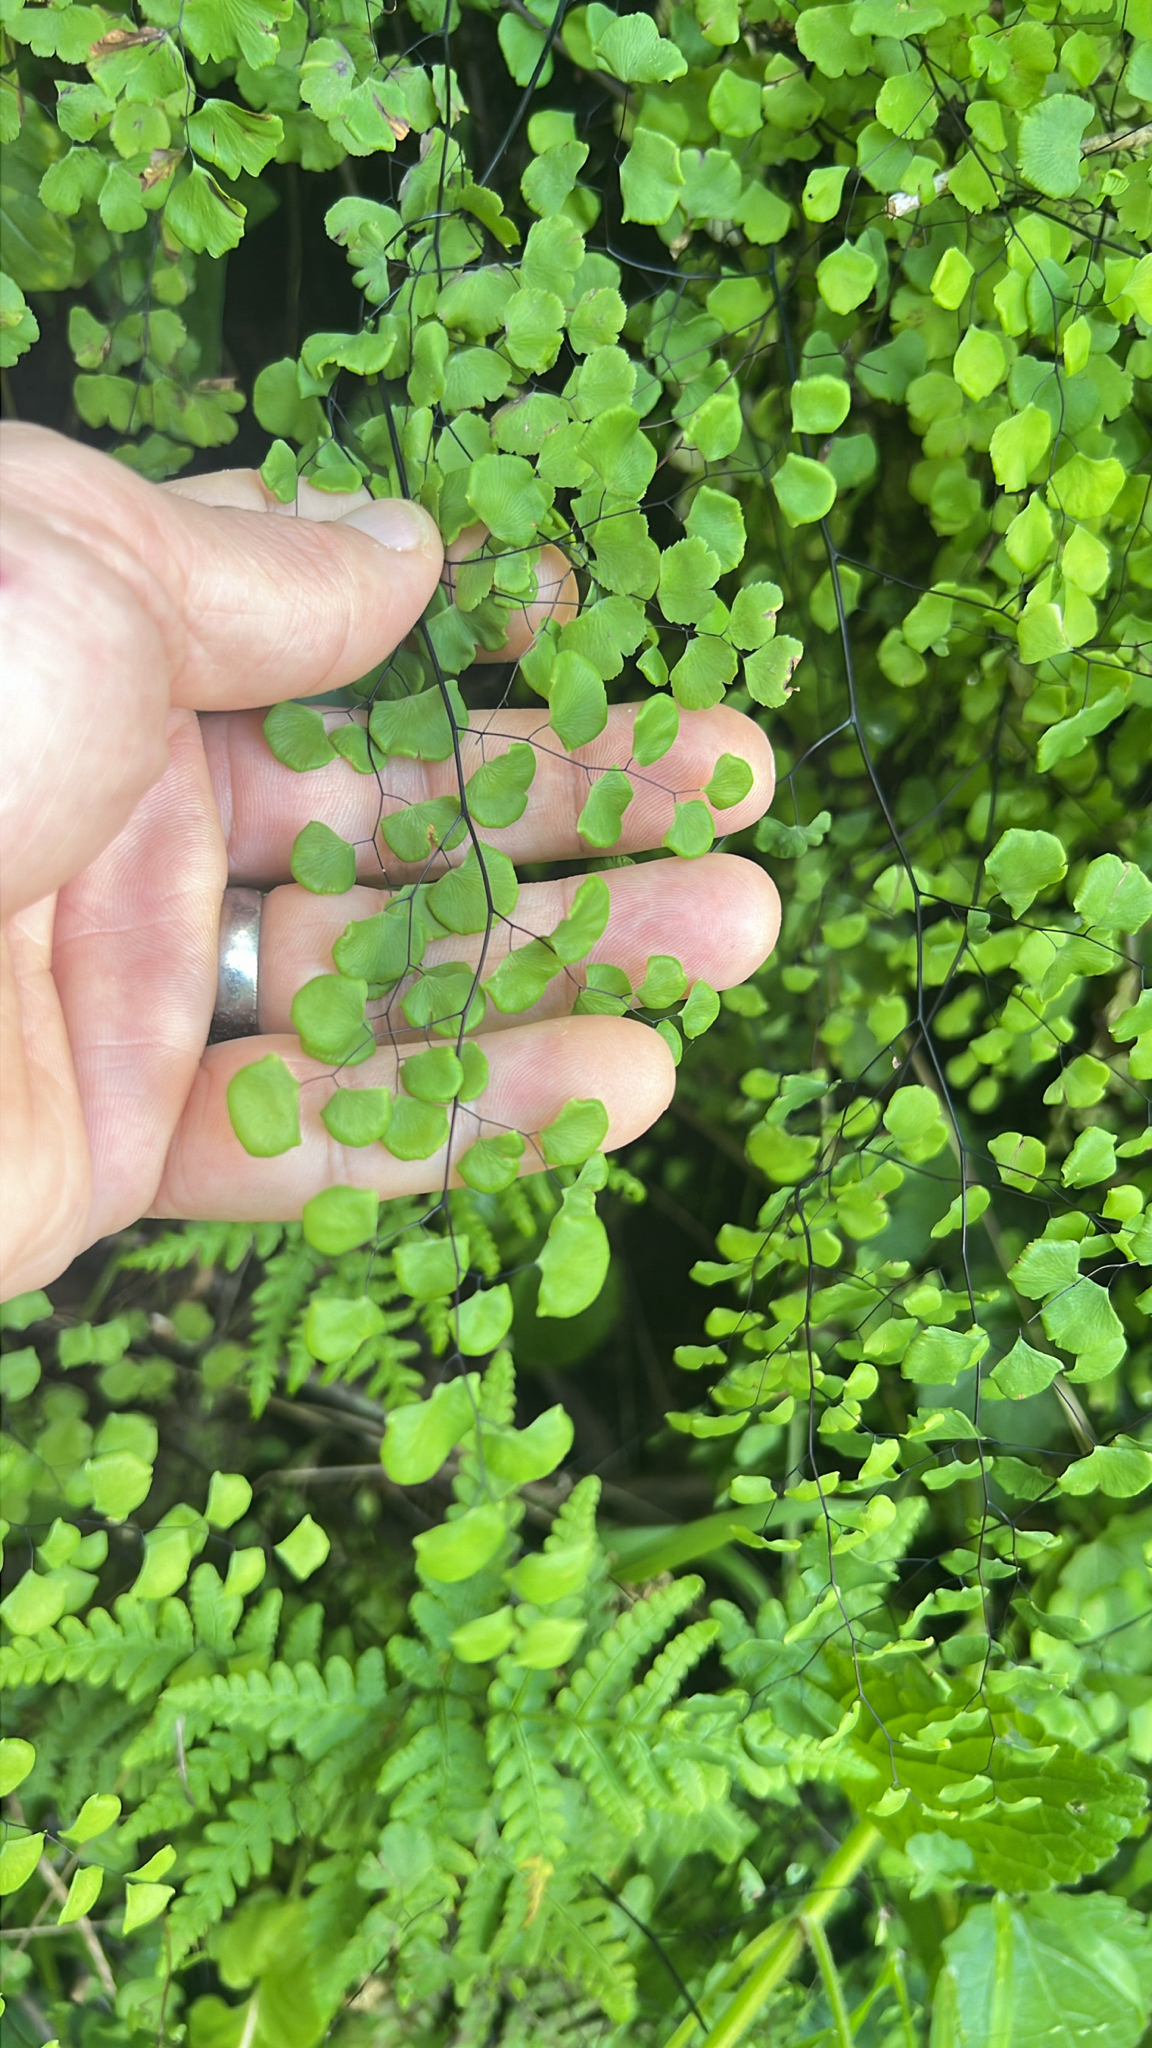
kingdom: Plantae
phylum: Tracheophyta
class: Polypodiopsida
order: Polypodiales
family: Pteridaceae
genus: Adiantum
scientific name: Adiantum jordanii
